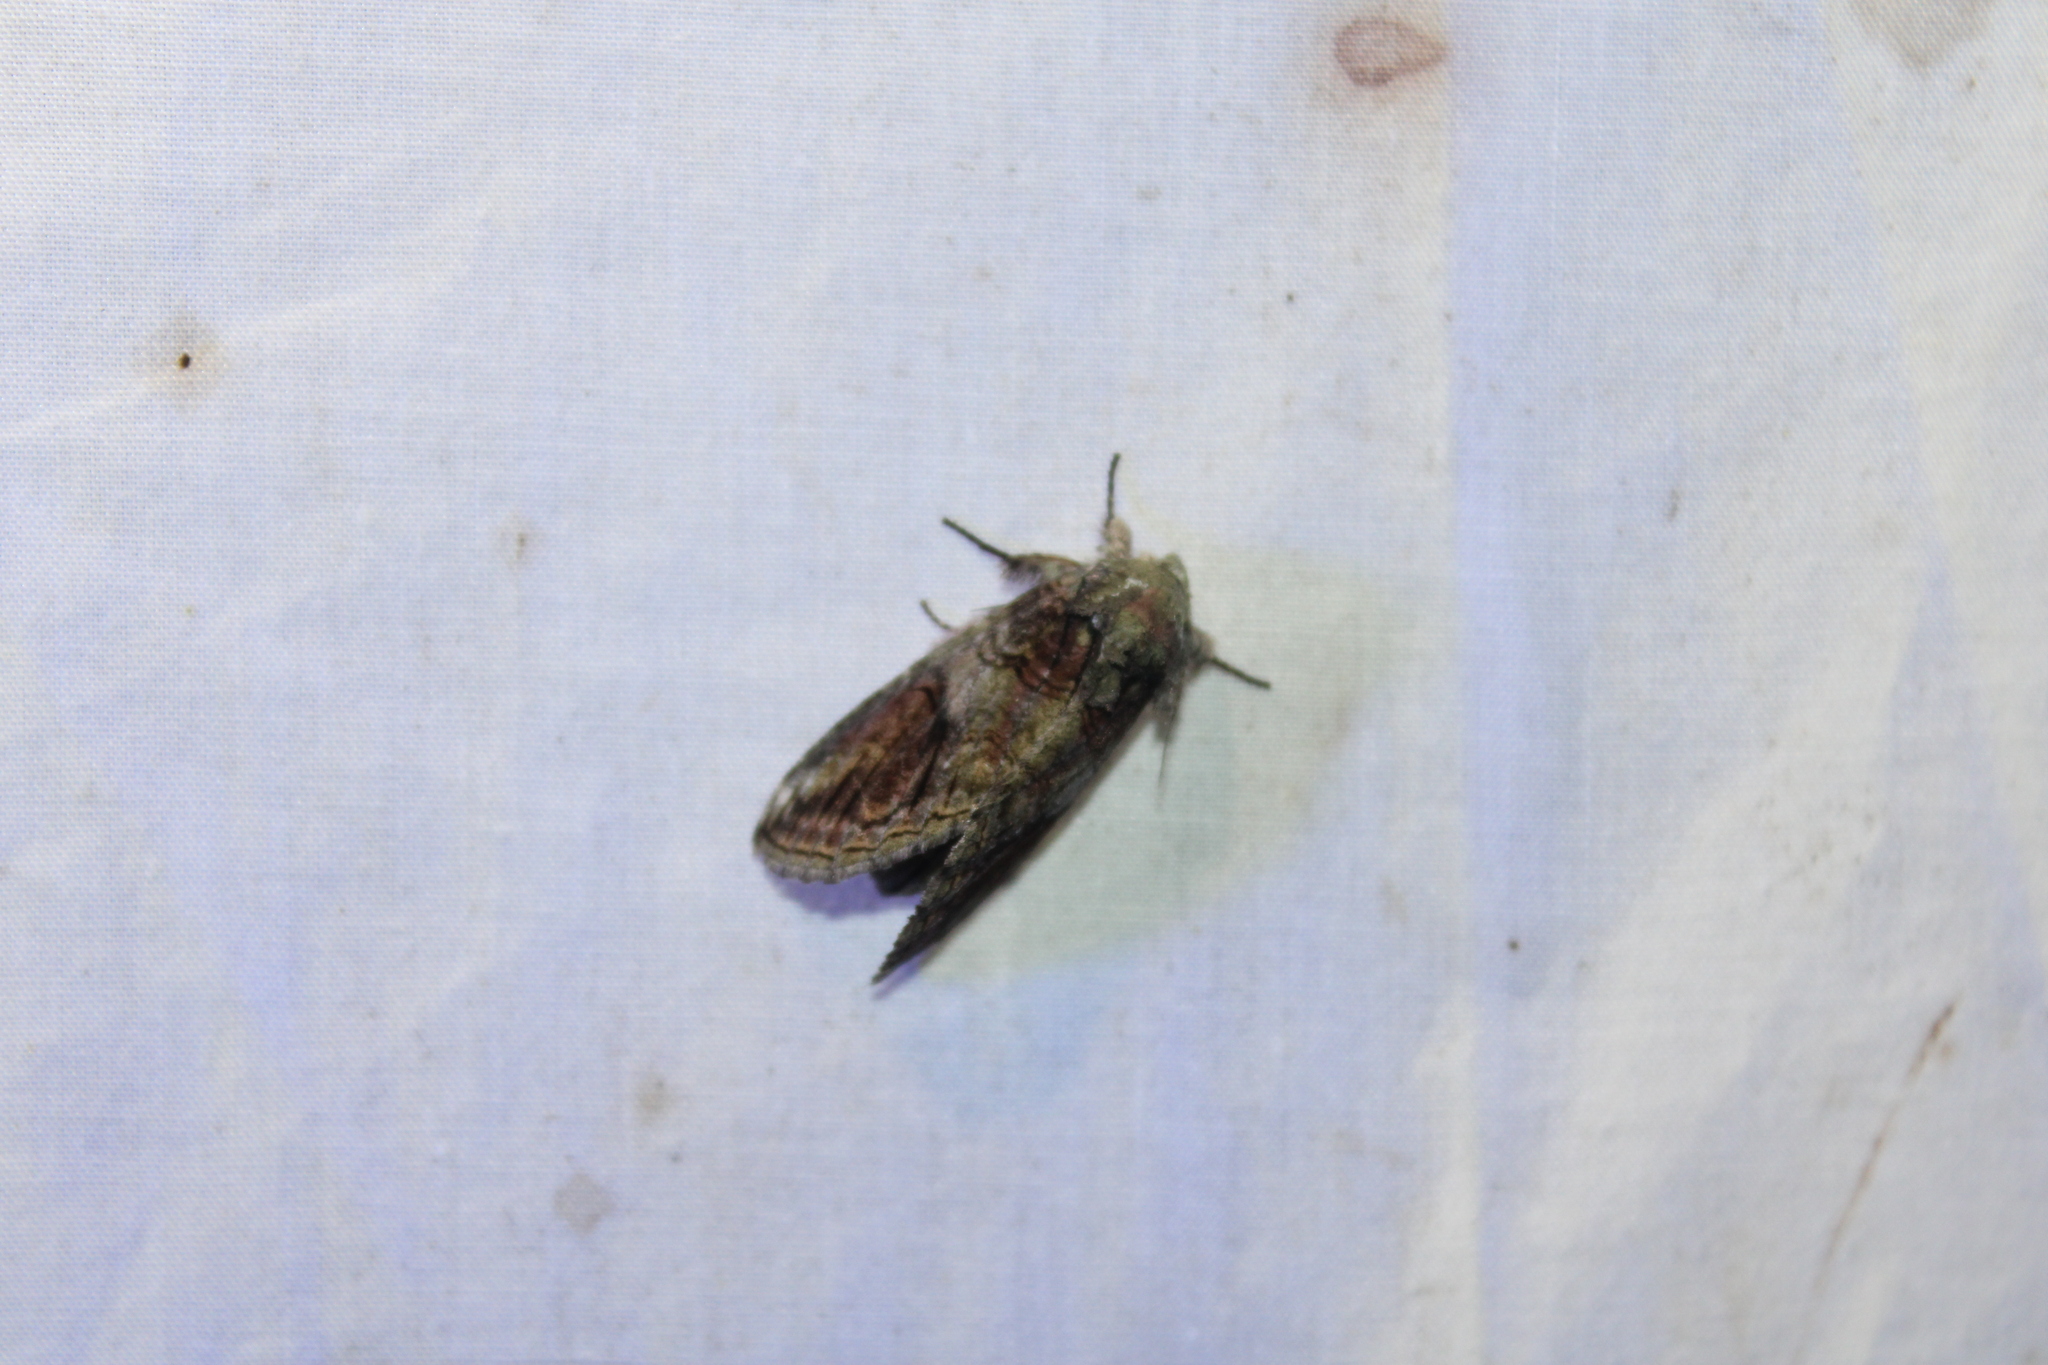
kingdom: Animalia
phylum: Arthropoda
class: Insecta
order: Lepidoptera
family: Notodontidae
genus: Heterocampa
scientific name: Heterocampa obliqua
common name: Oblique heterocampa
